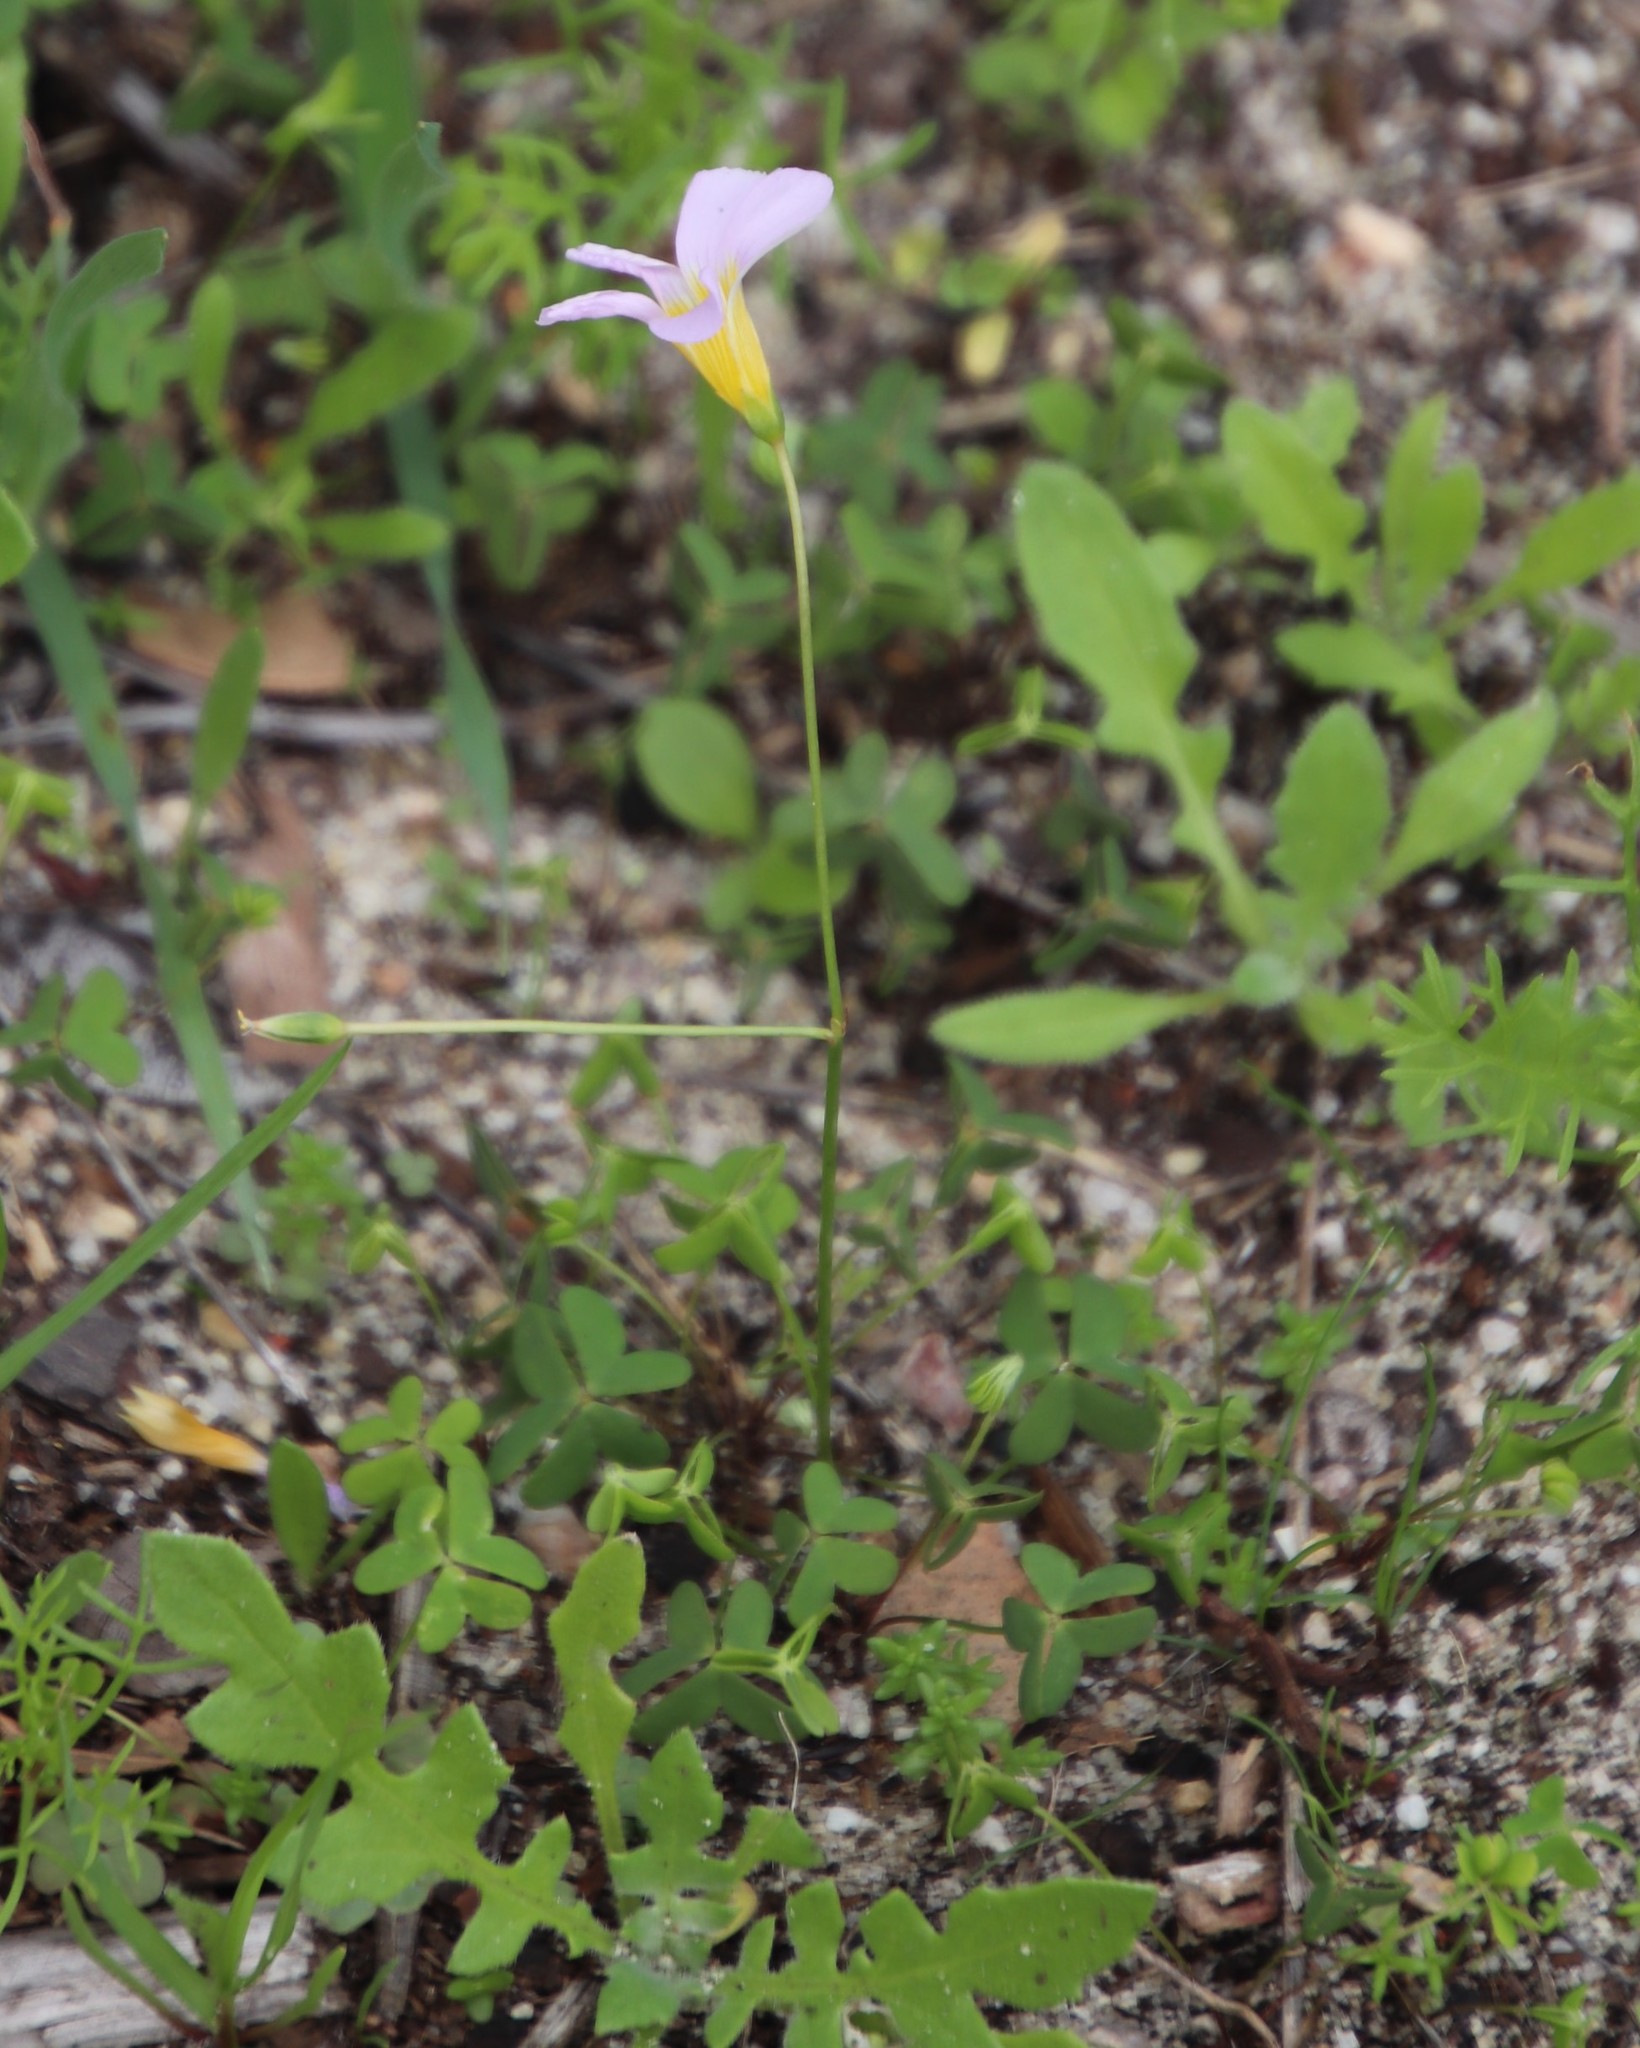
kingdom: Plantae
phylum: Tracheophyta
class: Magnoliopsida
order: Oxalidales
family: Oxalidaceae
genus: Oxalis
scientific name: Oxalis caprina
